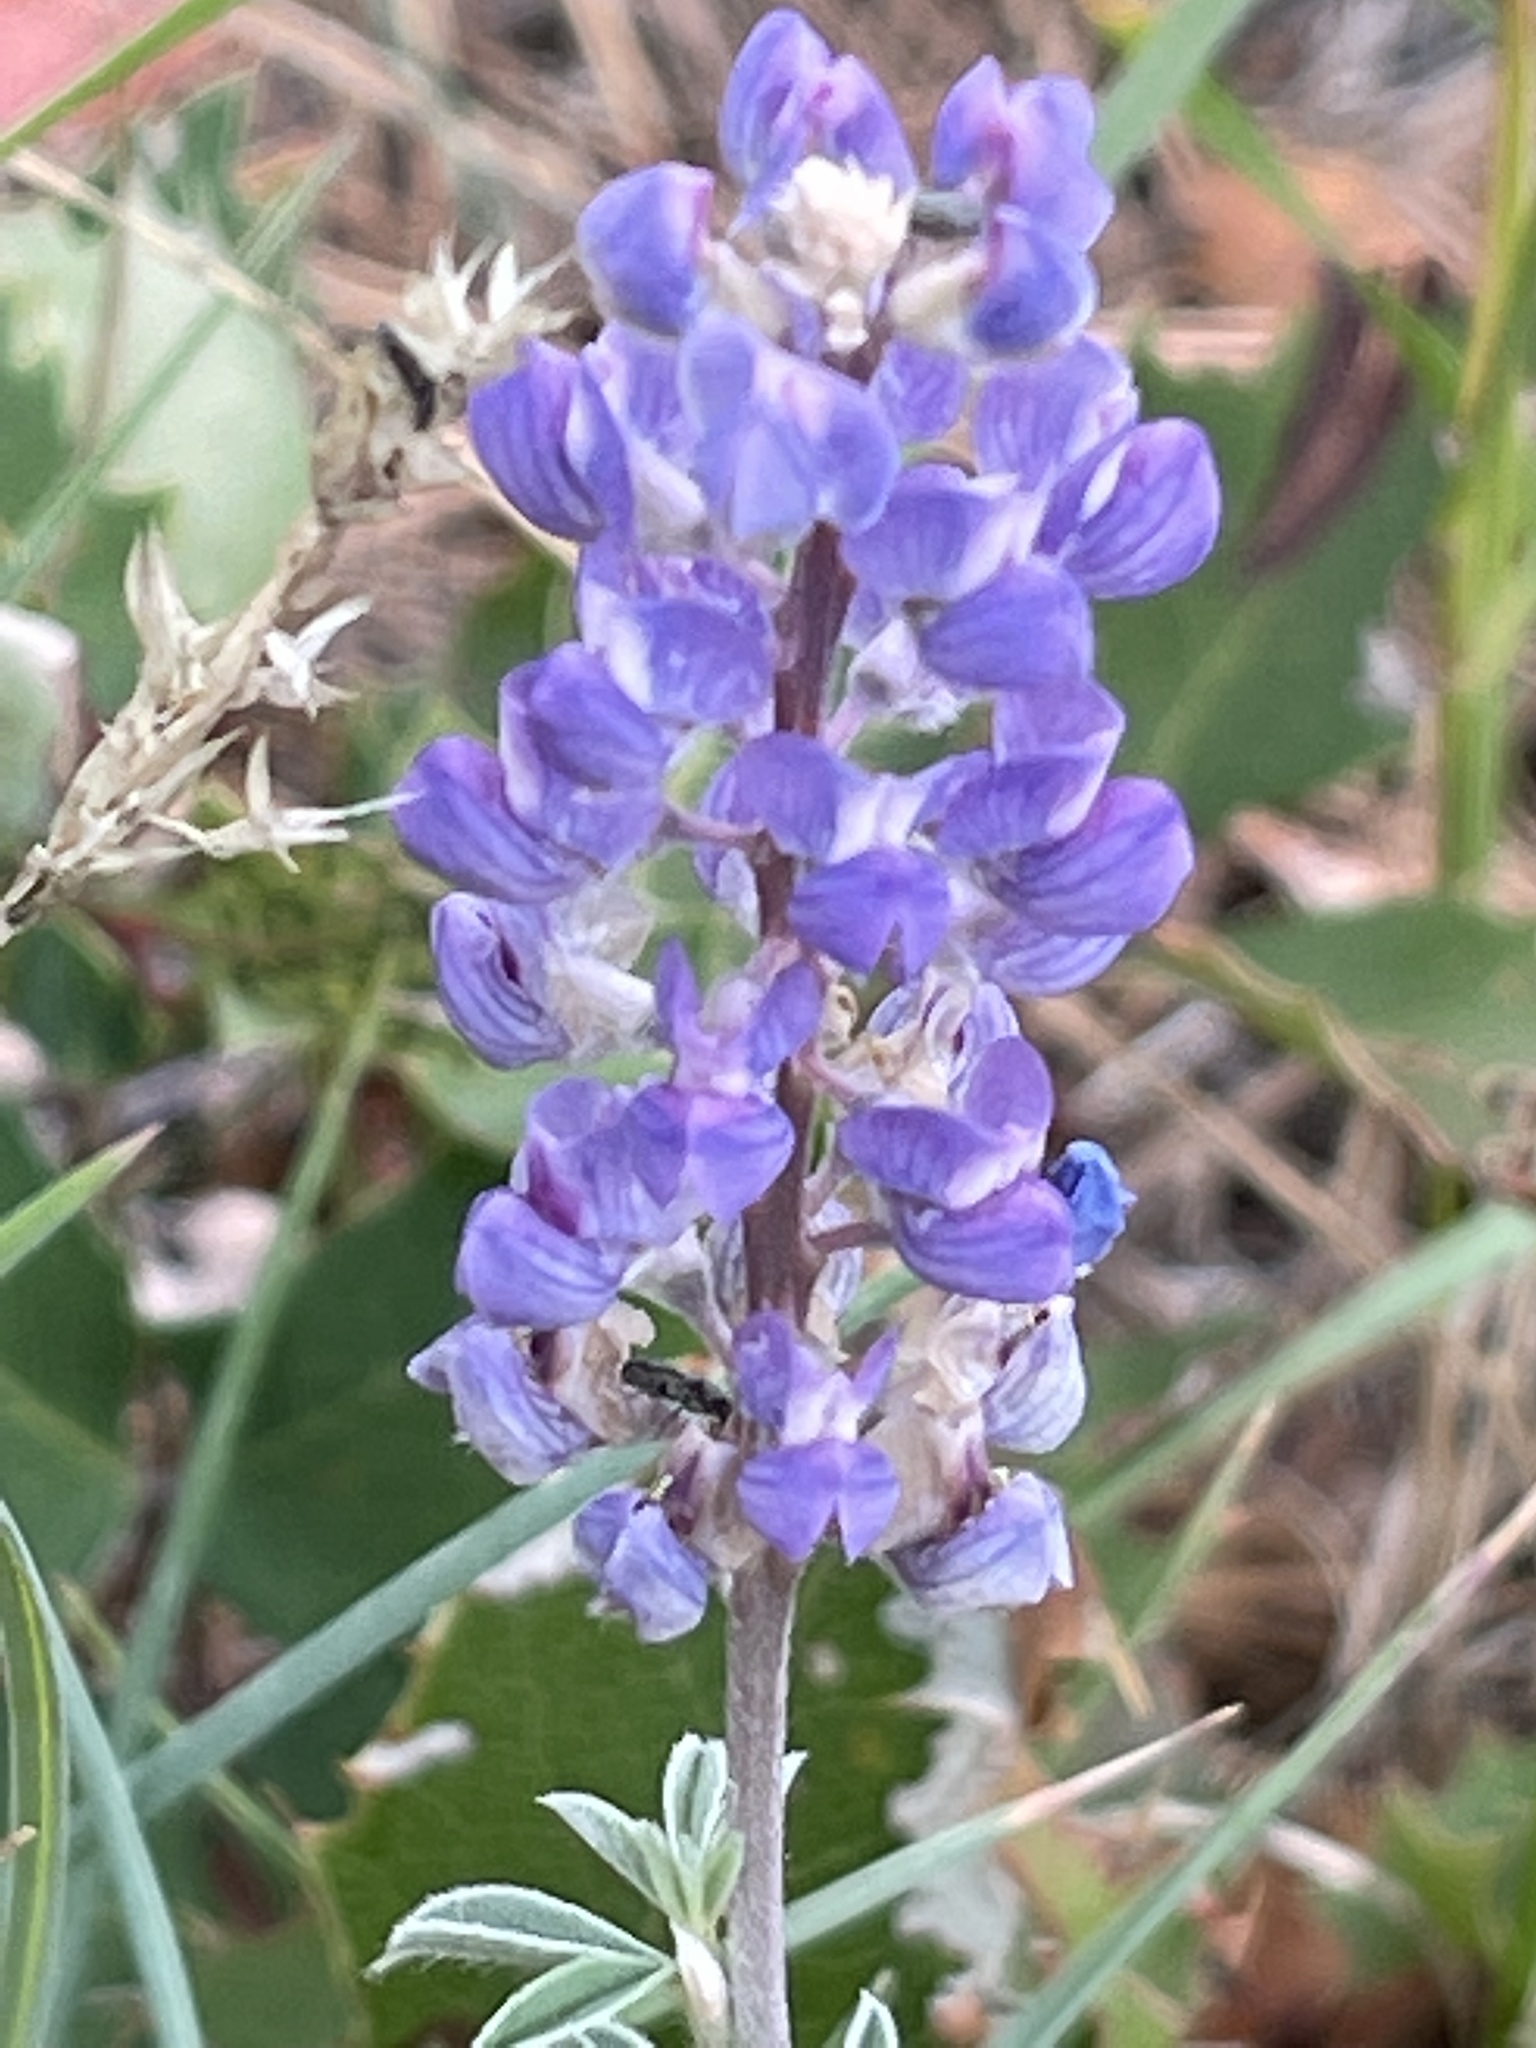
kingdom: Plantae
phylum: Tracheophyta
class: Magnoliopsida
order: Fabales
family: Fabaceae
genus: Lupinus
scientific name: Lupinus argenteus
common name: Silvery lupine
